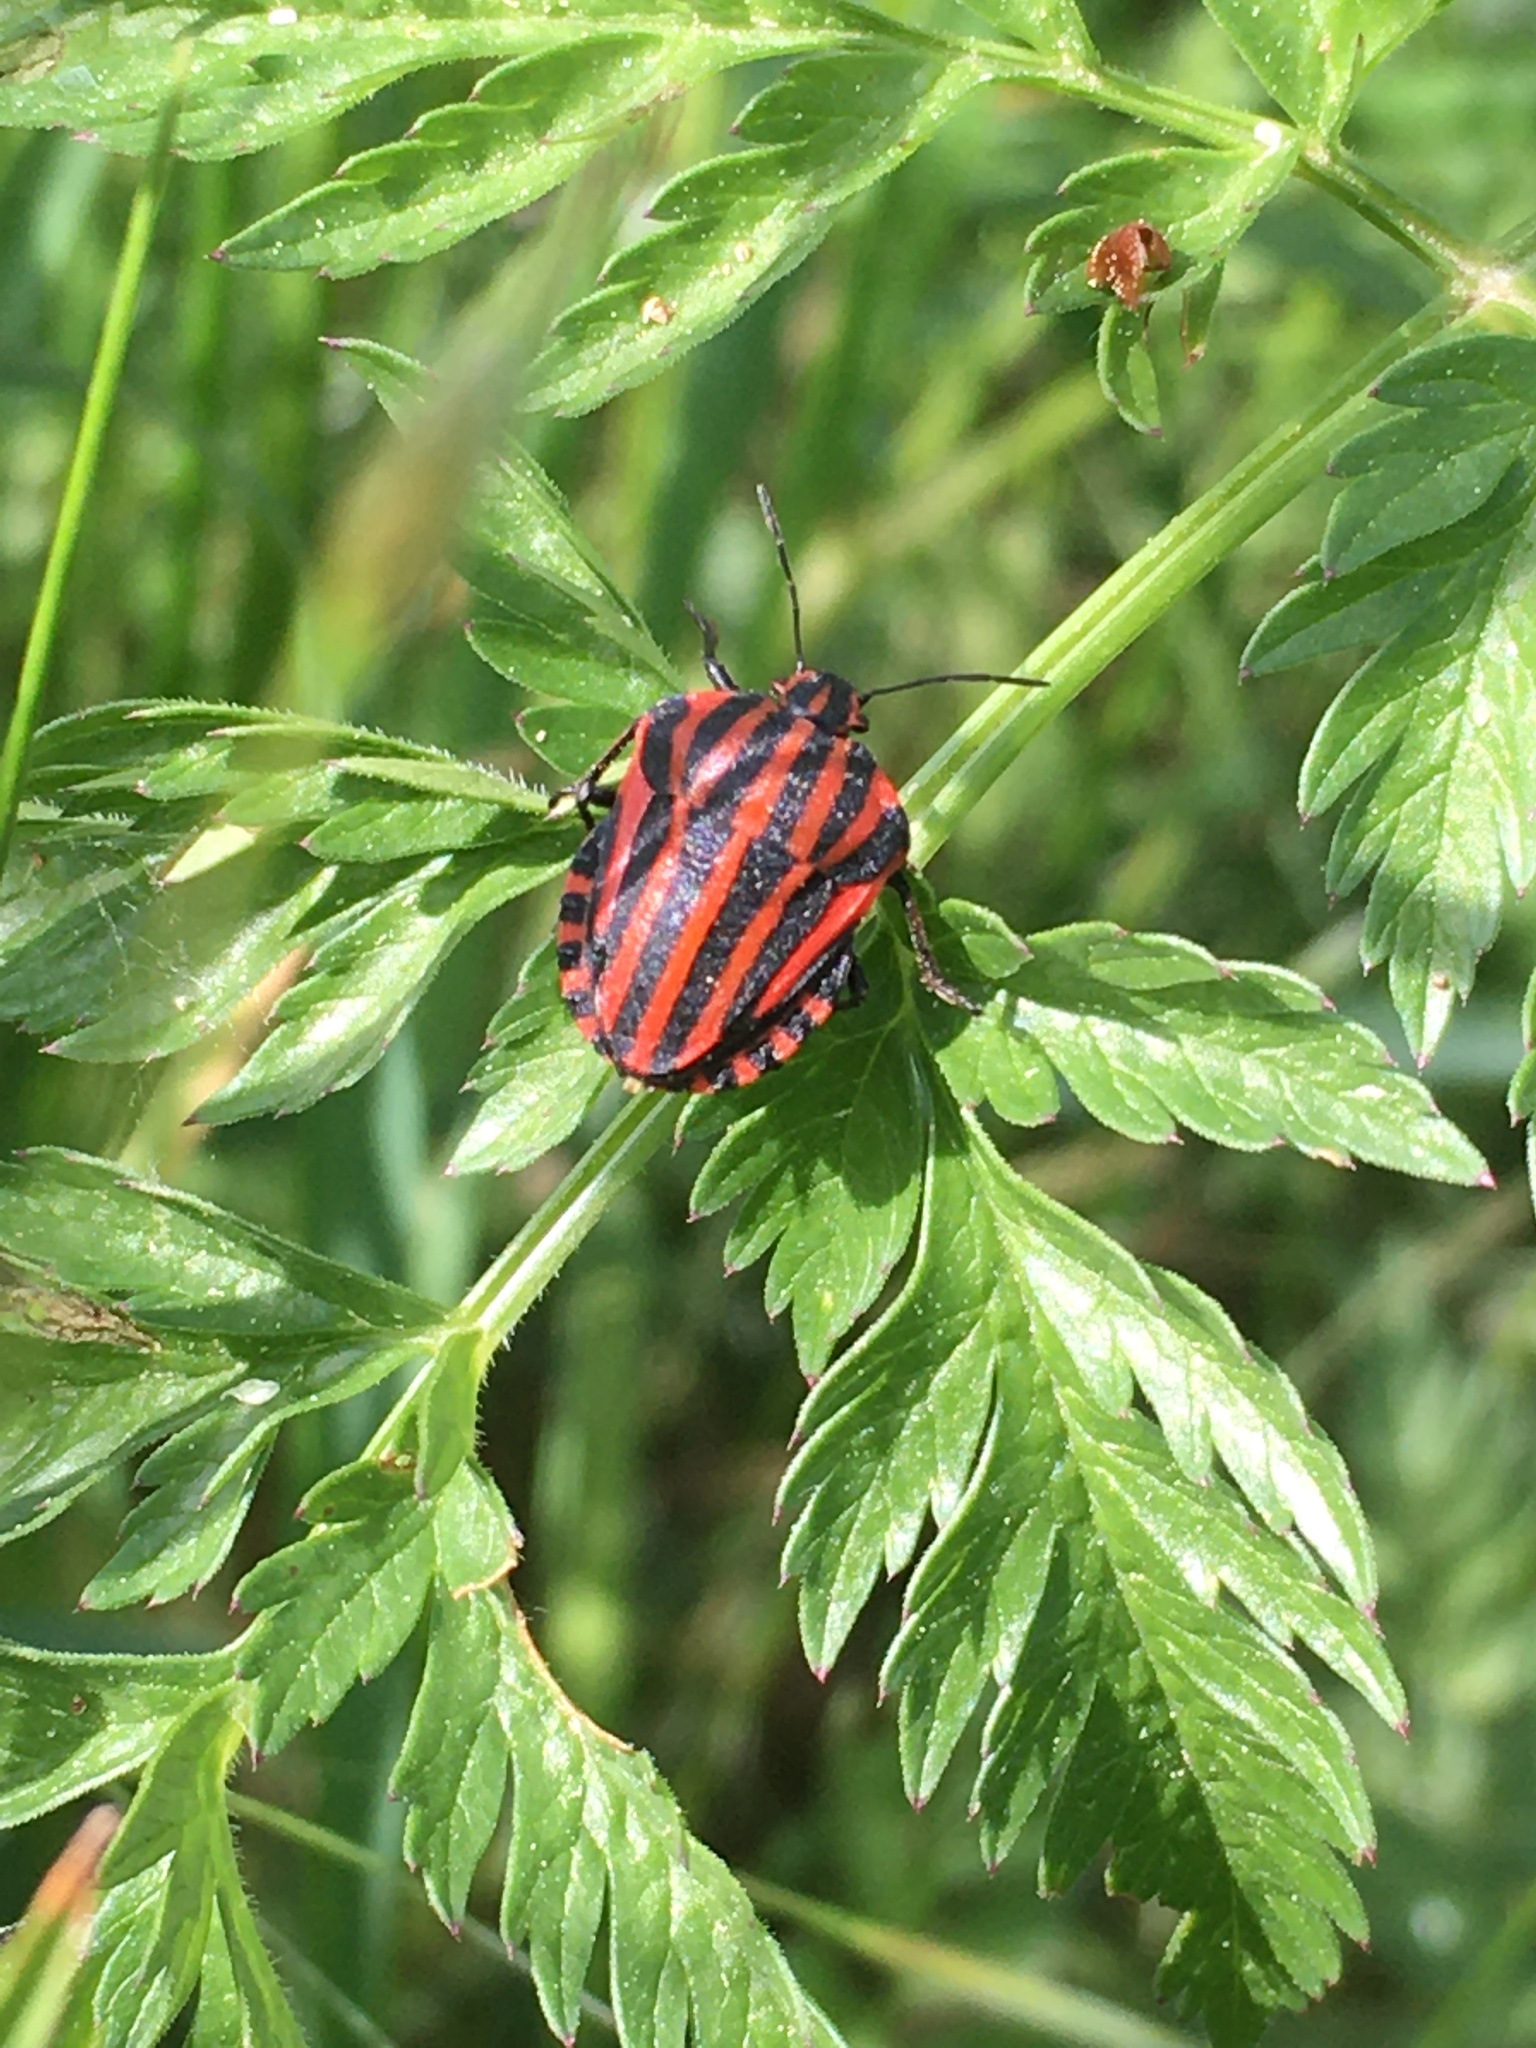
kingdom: Animalia
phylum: Arthropoda
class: Insecta
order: Hemiptera
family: Pentatomidae
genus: Graphosoma
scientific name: Graphosoma italicum
